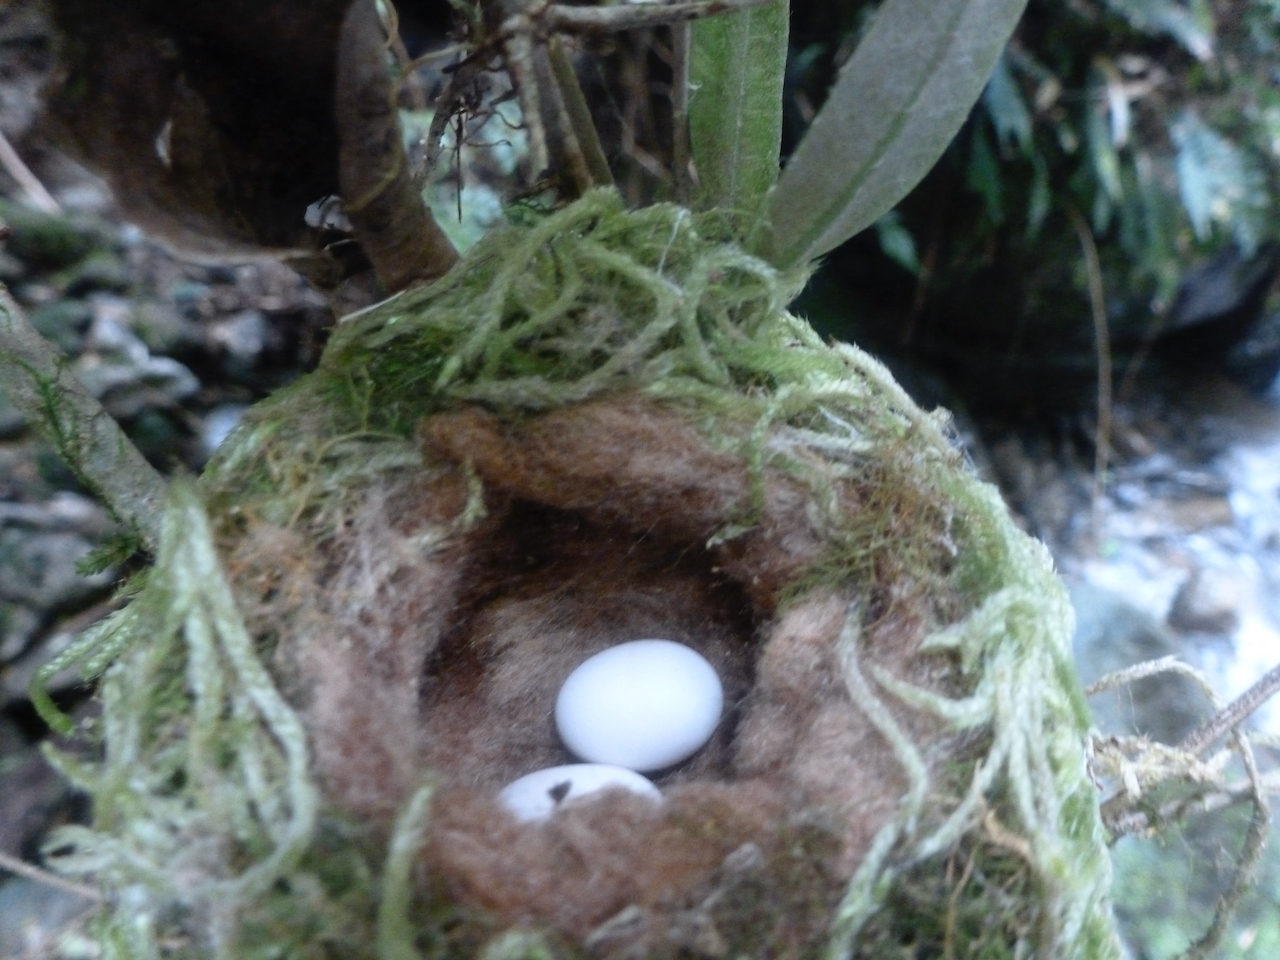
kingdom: Animalia
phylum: Chordata
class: Aves
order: Apodiformes
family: Trochilidae
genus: Sephanoides
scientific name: Sephanoides sephaniodes
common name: Green-backed firecrown
